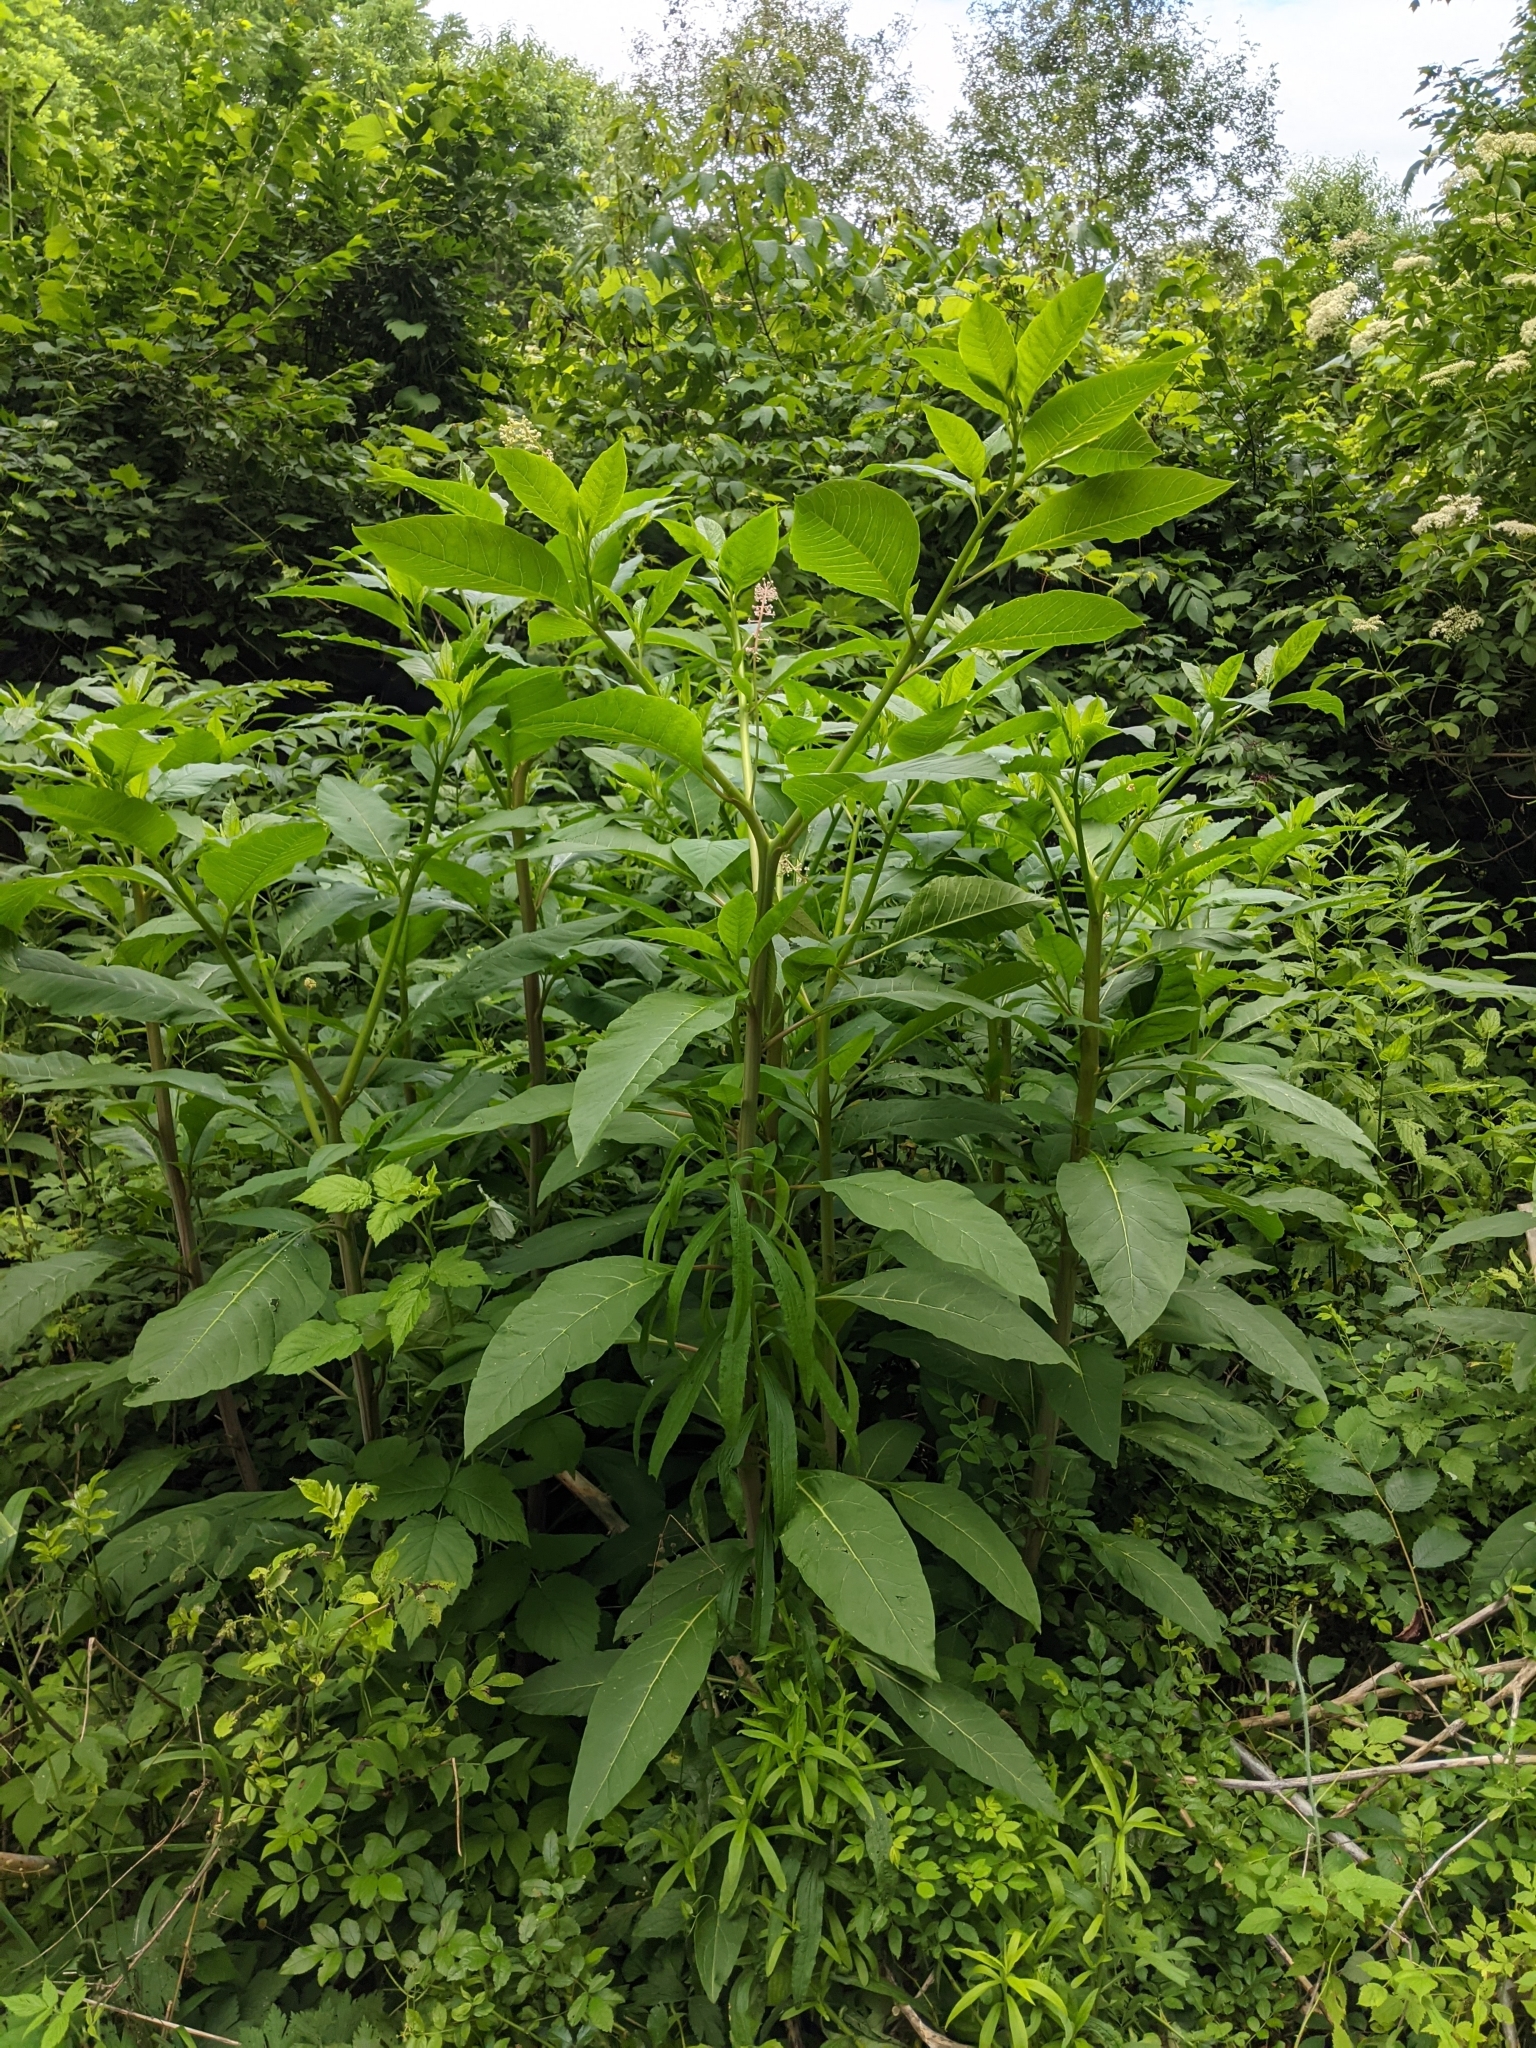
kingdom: Plantae
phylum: Tracheophyta
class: Magnoliopsida
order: Caryophyllales
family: Phytolaccaceae
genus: Phytolacca
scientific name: Phytolacca americana
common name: American pokeweed
